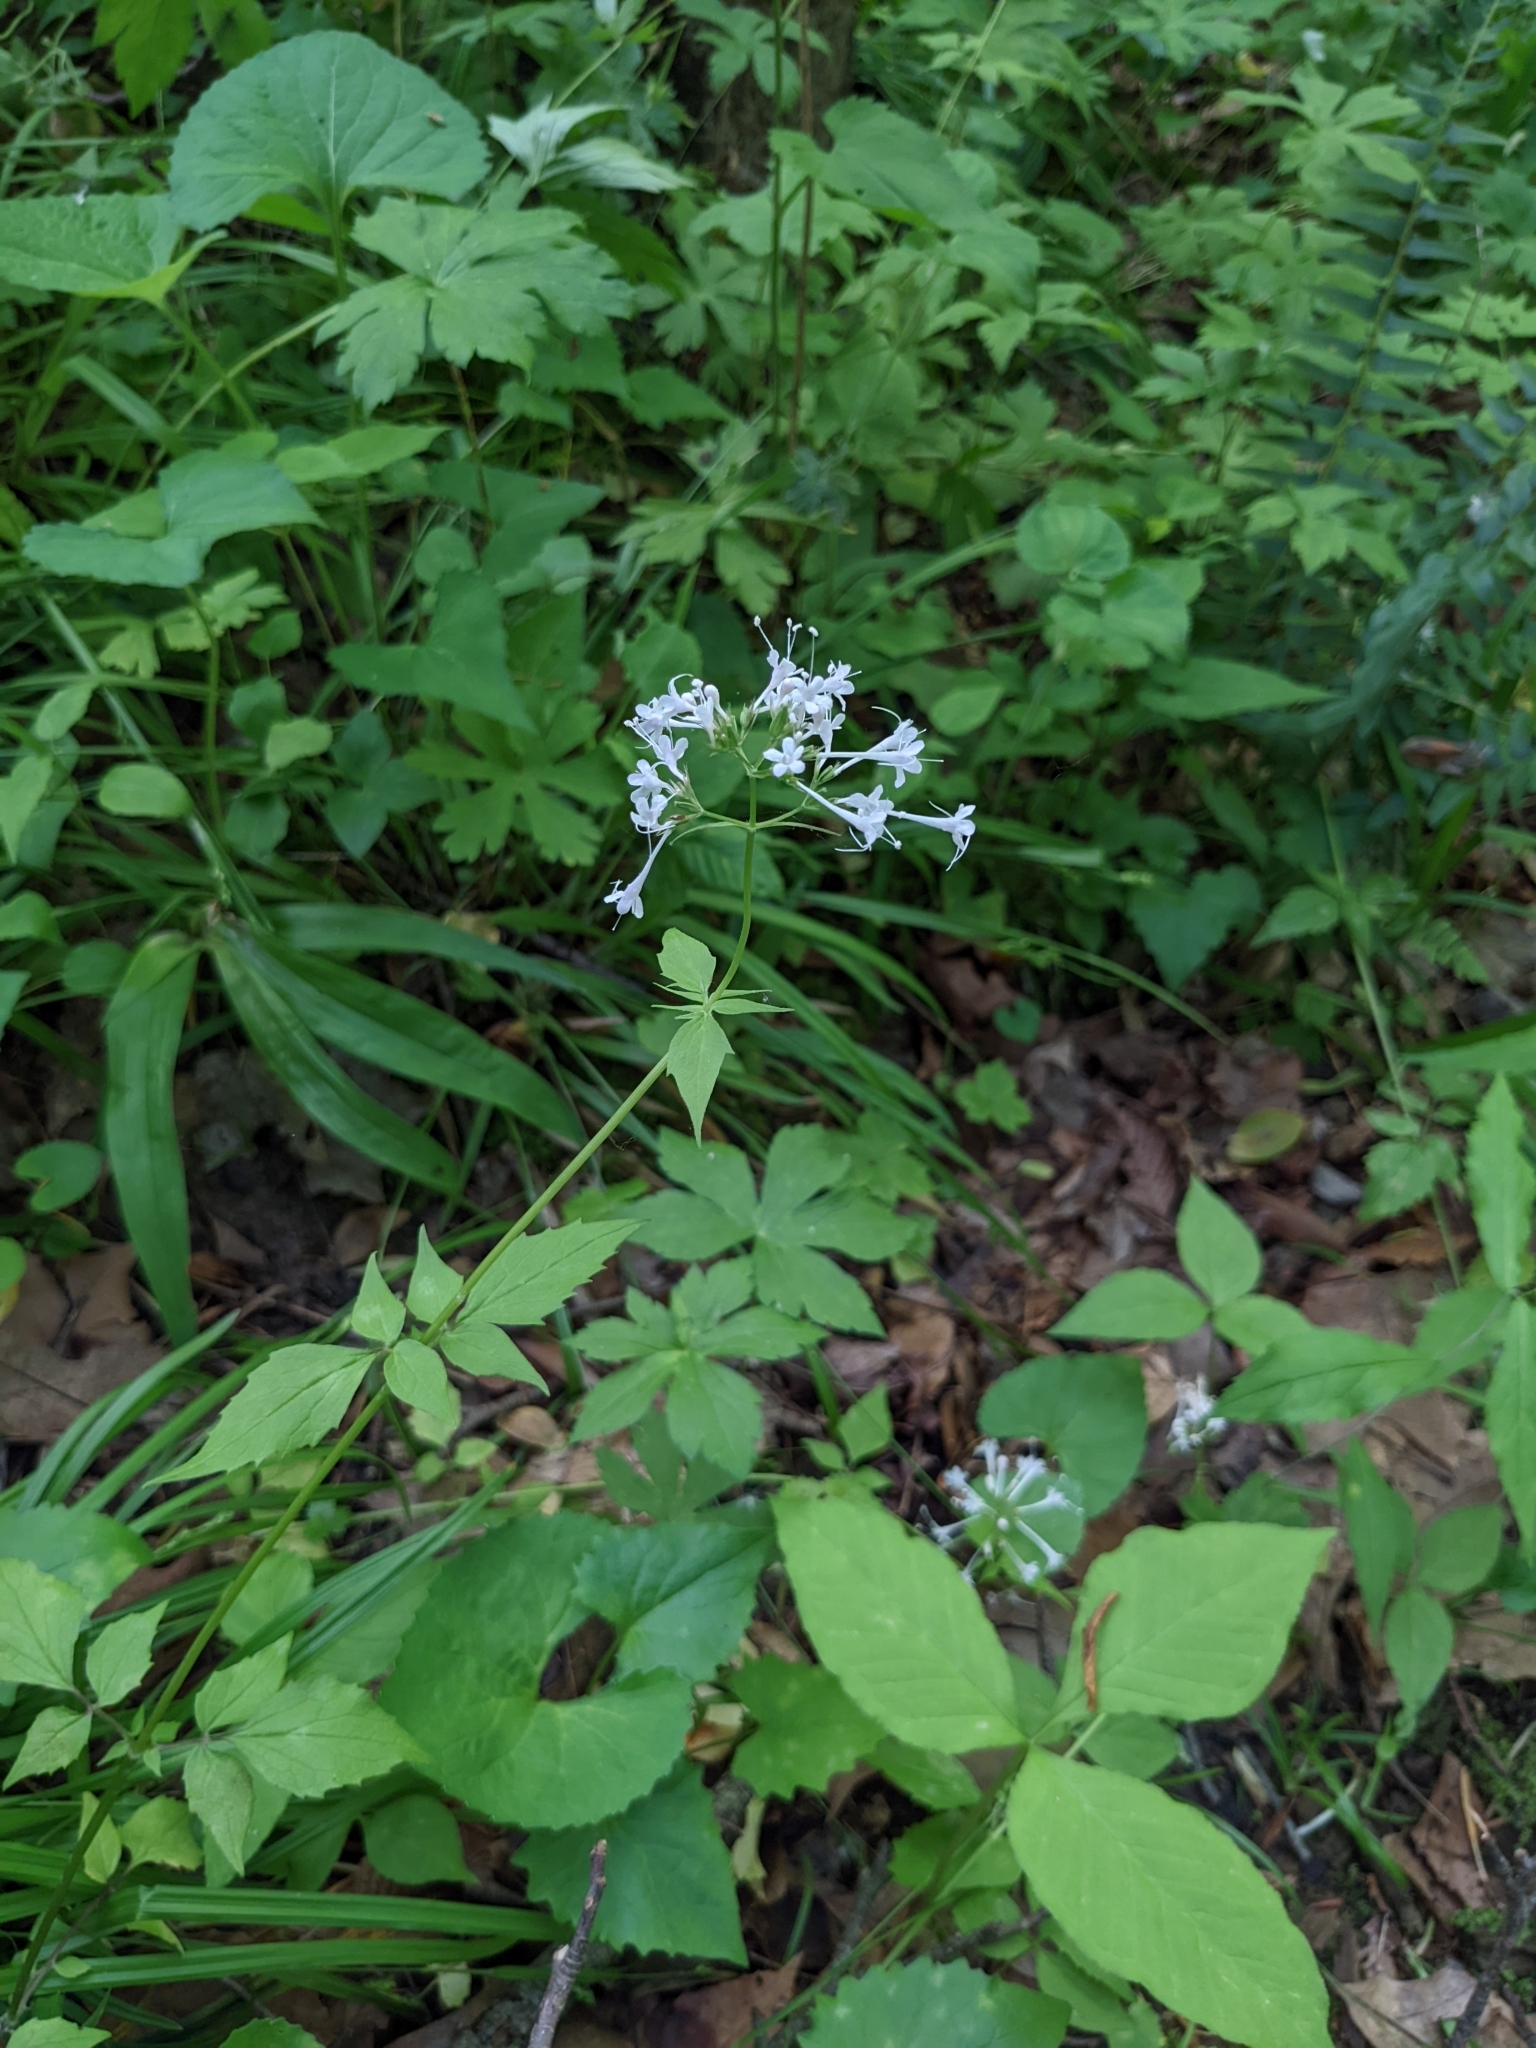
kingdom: Plantae
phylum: Tracheophyta
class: Magnoliopsida
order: Dipsacales
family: Caprifoliaceae
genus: Valeriana
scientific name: Valeriana pauciflora
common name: Long-tube valeriana
